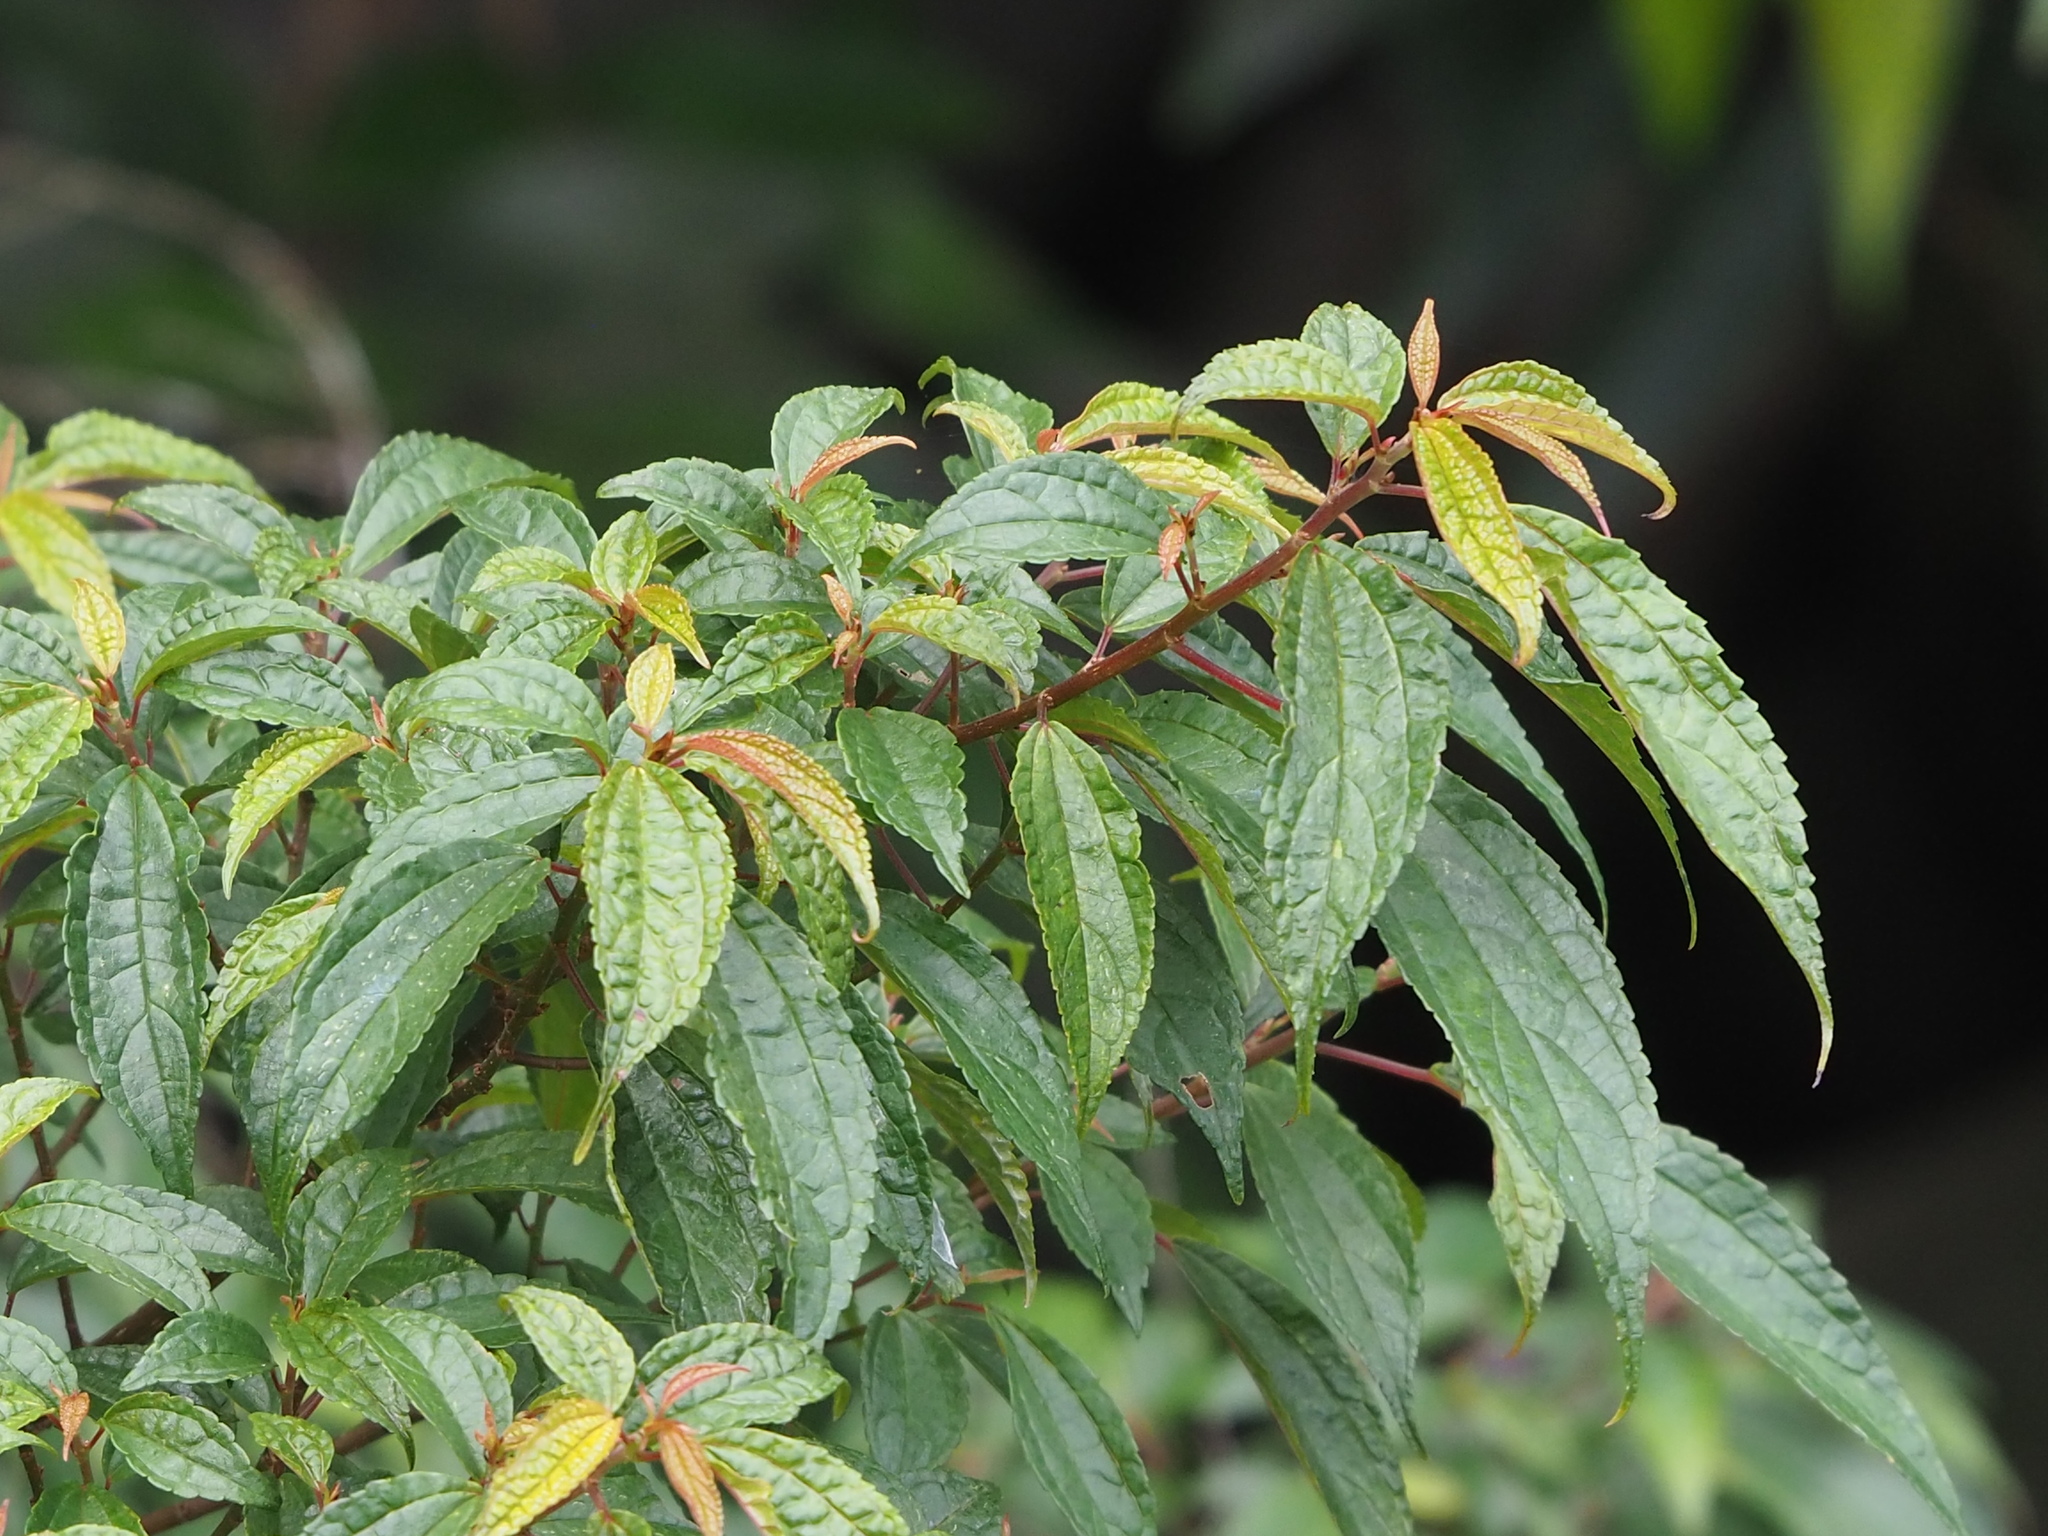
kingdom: Plantae
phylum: Tracheophyta
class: Magnoliopsida
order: Rosales
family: Urticaceae
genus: Oreocnide
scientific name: Oreocnide pedunculata
